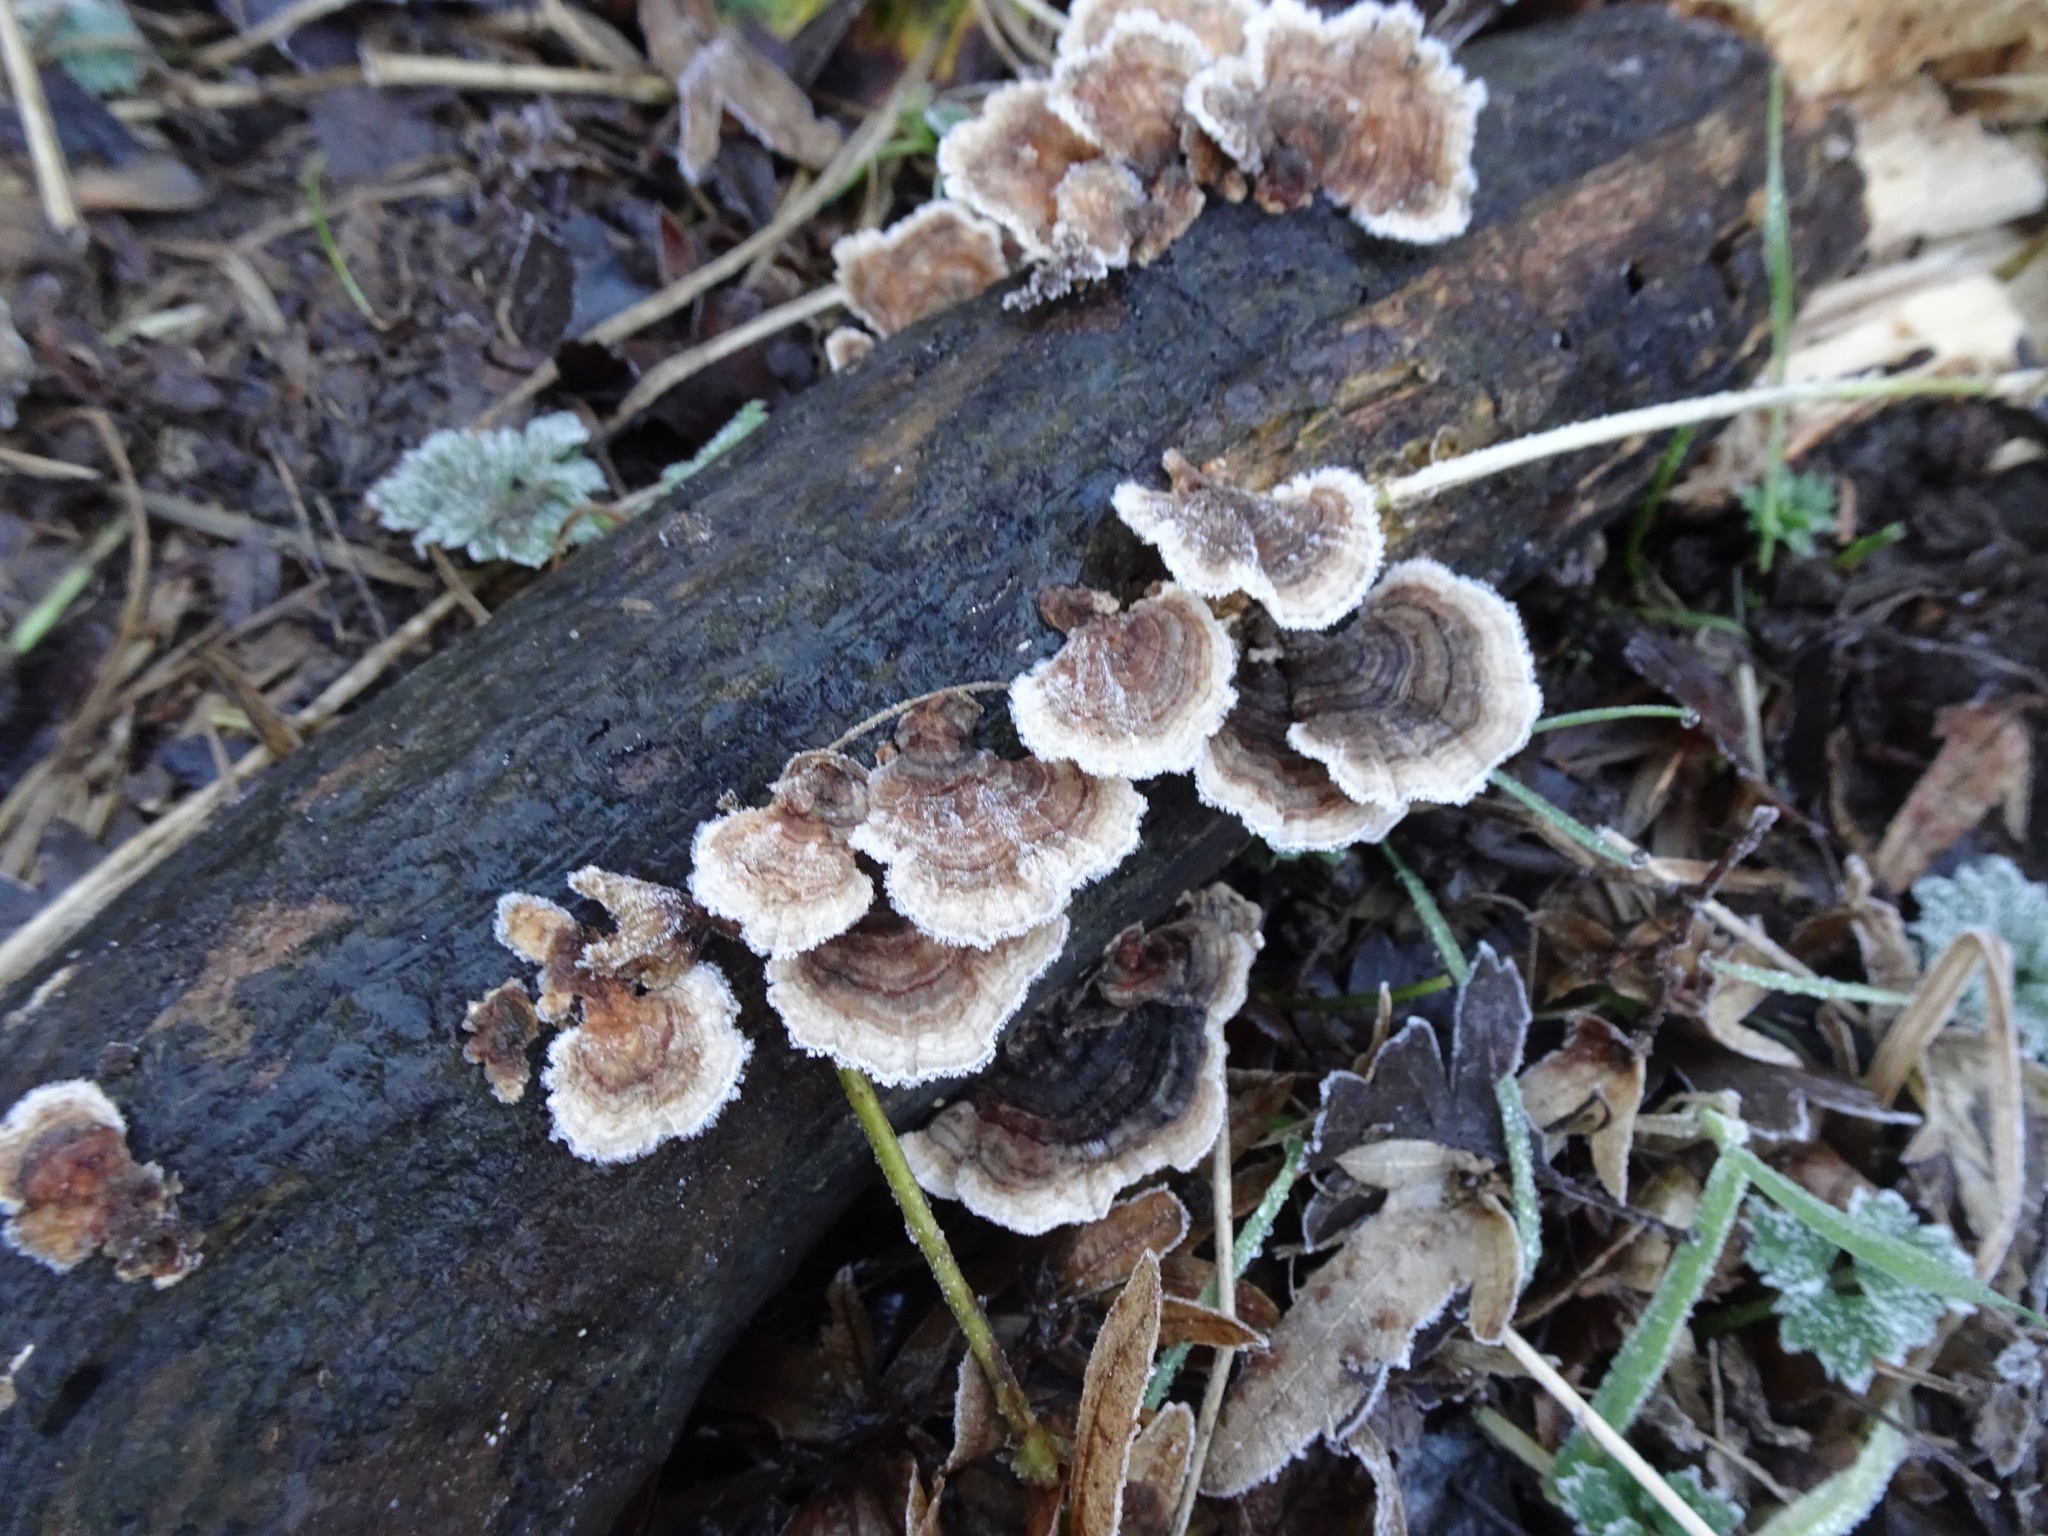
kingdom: Fungi
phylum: Basidiomycota
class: Agaricomycetes
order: Polyporales
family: Polyporaceae
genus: Trametes
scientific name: Trametes versicolor
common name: Turkeytail
